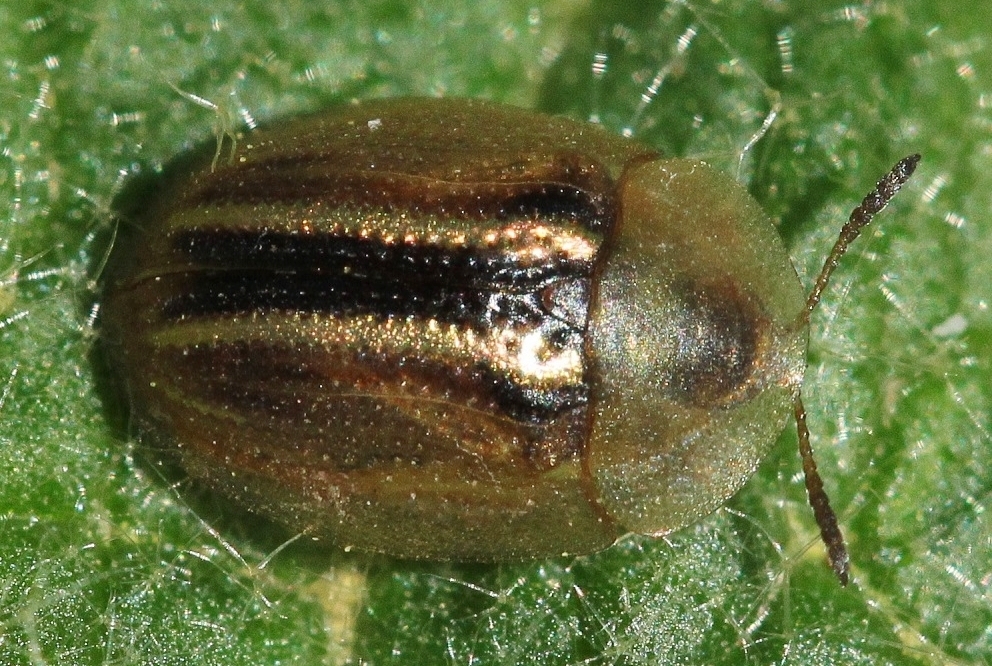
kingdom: Animalia
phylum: Arthropoda
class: Insecta
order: Coleoptera
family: Chrysomelidae
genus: Cassida
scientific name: Cassida nobilis
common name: Leaf beetle
